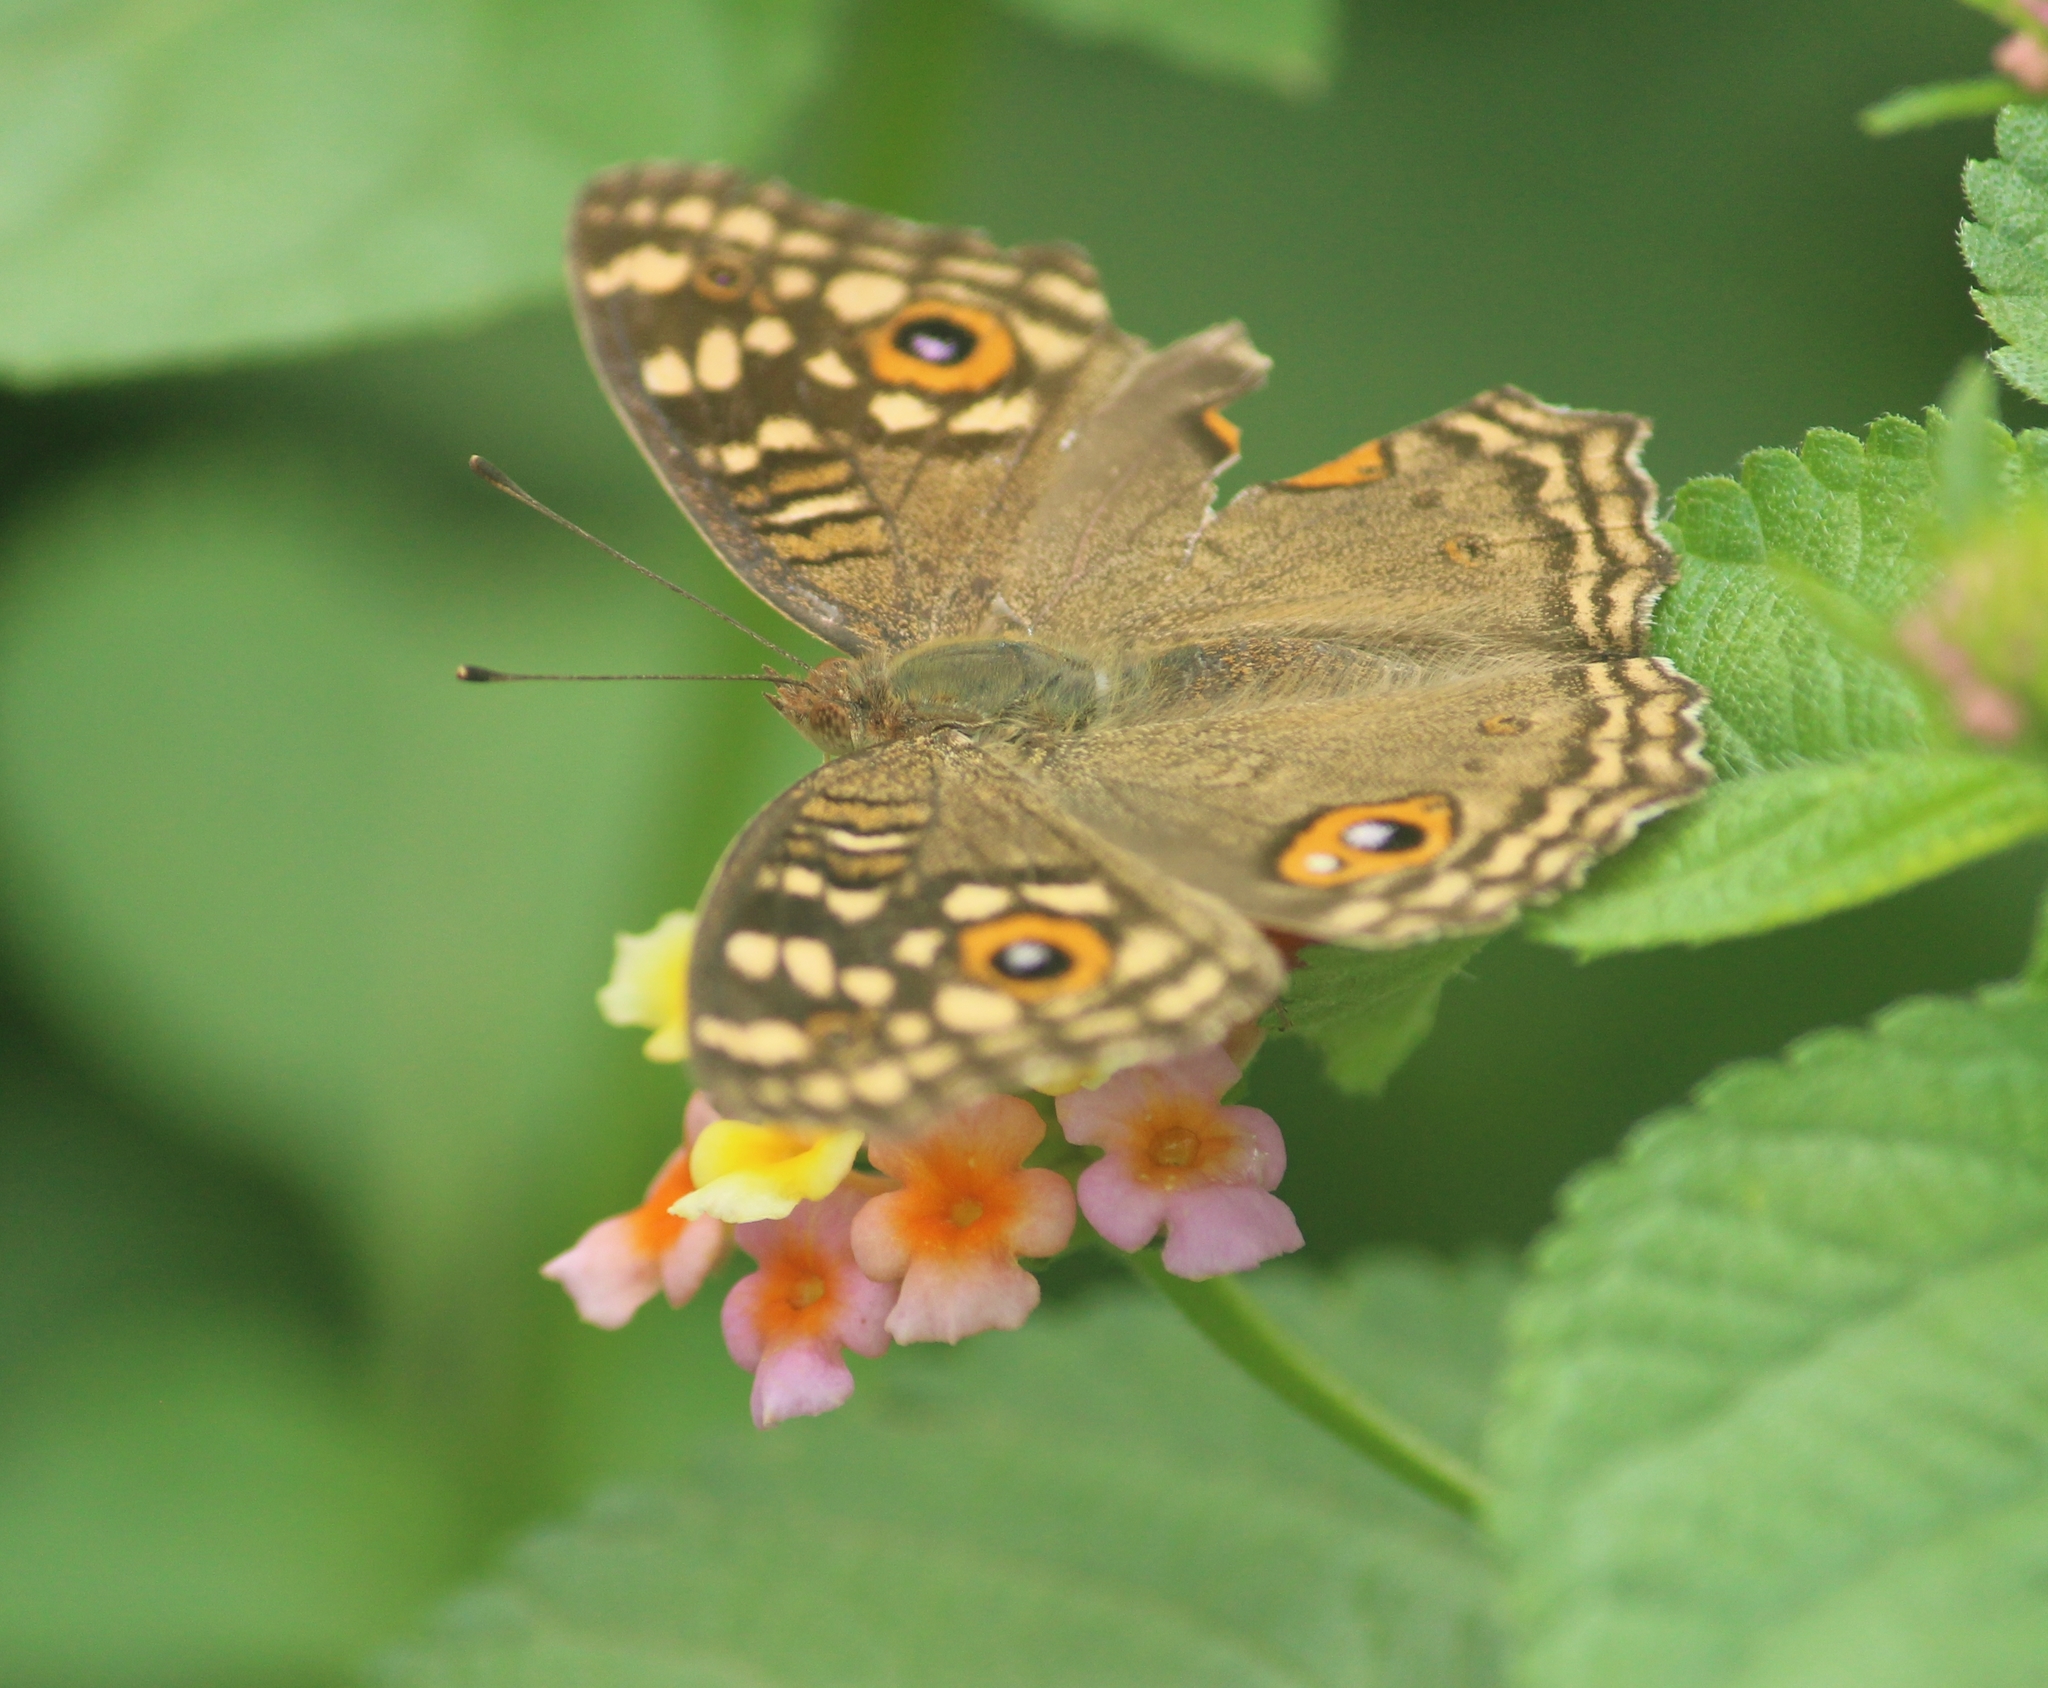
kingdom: Animalia
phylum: Arthropoda
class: Insecta
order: Lepidoptera
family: Nymphalidae
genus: Junonia
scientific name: Junonia lemonias
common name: Lemon pansy
